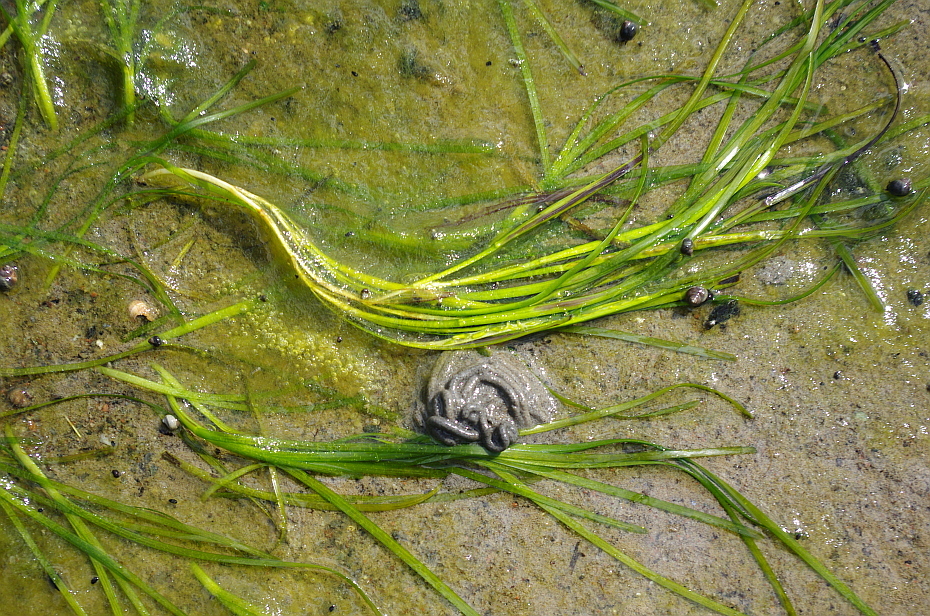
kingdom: Plantae
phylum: Tracheophyta
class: Liliopsida
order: Alismatales
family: Zosteraceae
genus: Zostera
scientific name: Zostera marina
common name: Eelgrass
